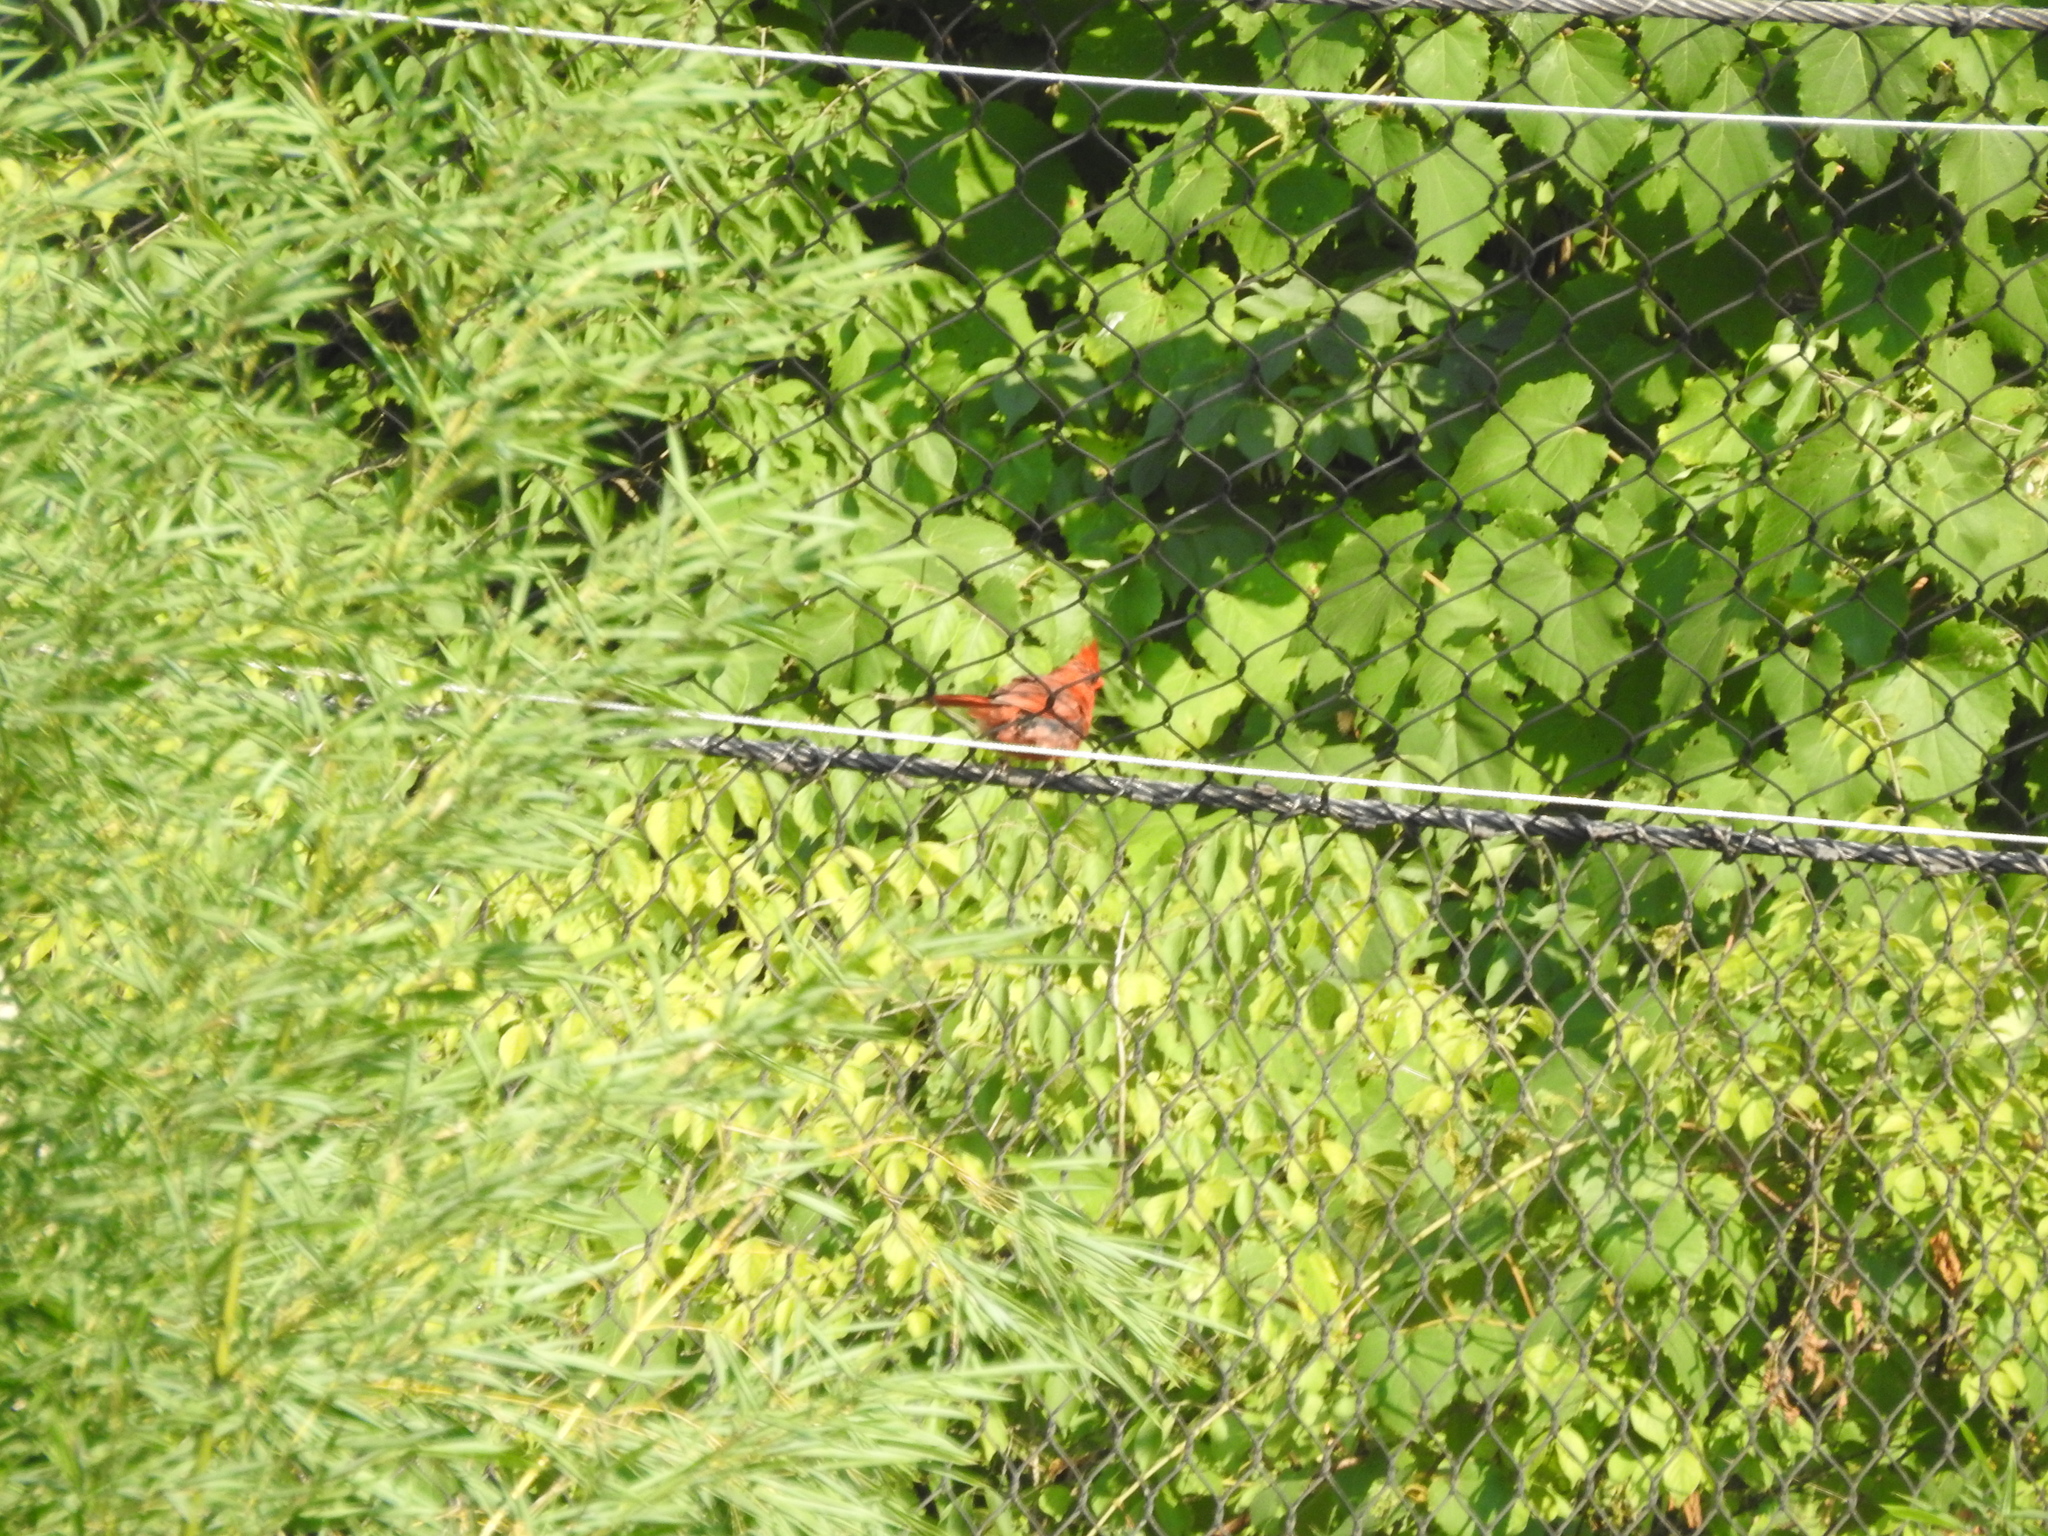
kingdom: Animalia
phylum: Chordata
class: Aves
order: Passeriformes
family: Cardinalidae
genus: Cardinalis
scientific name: Cardinalis cardinalis
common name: Northern cardinal
